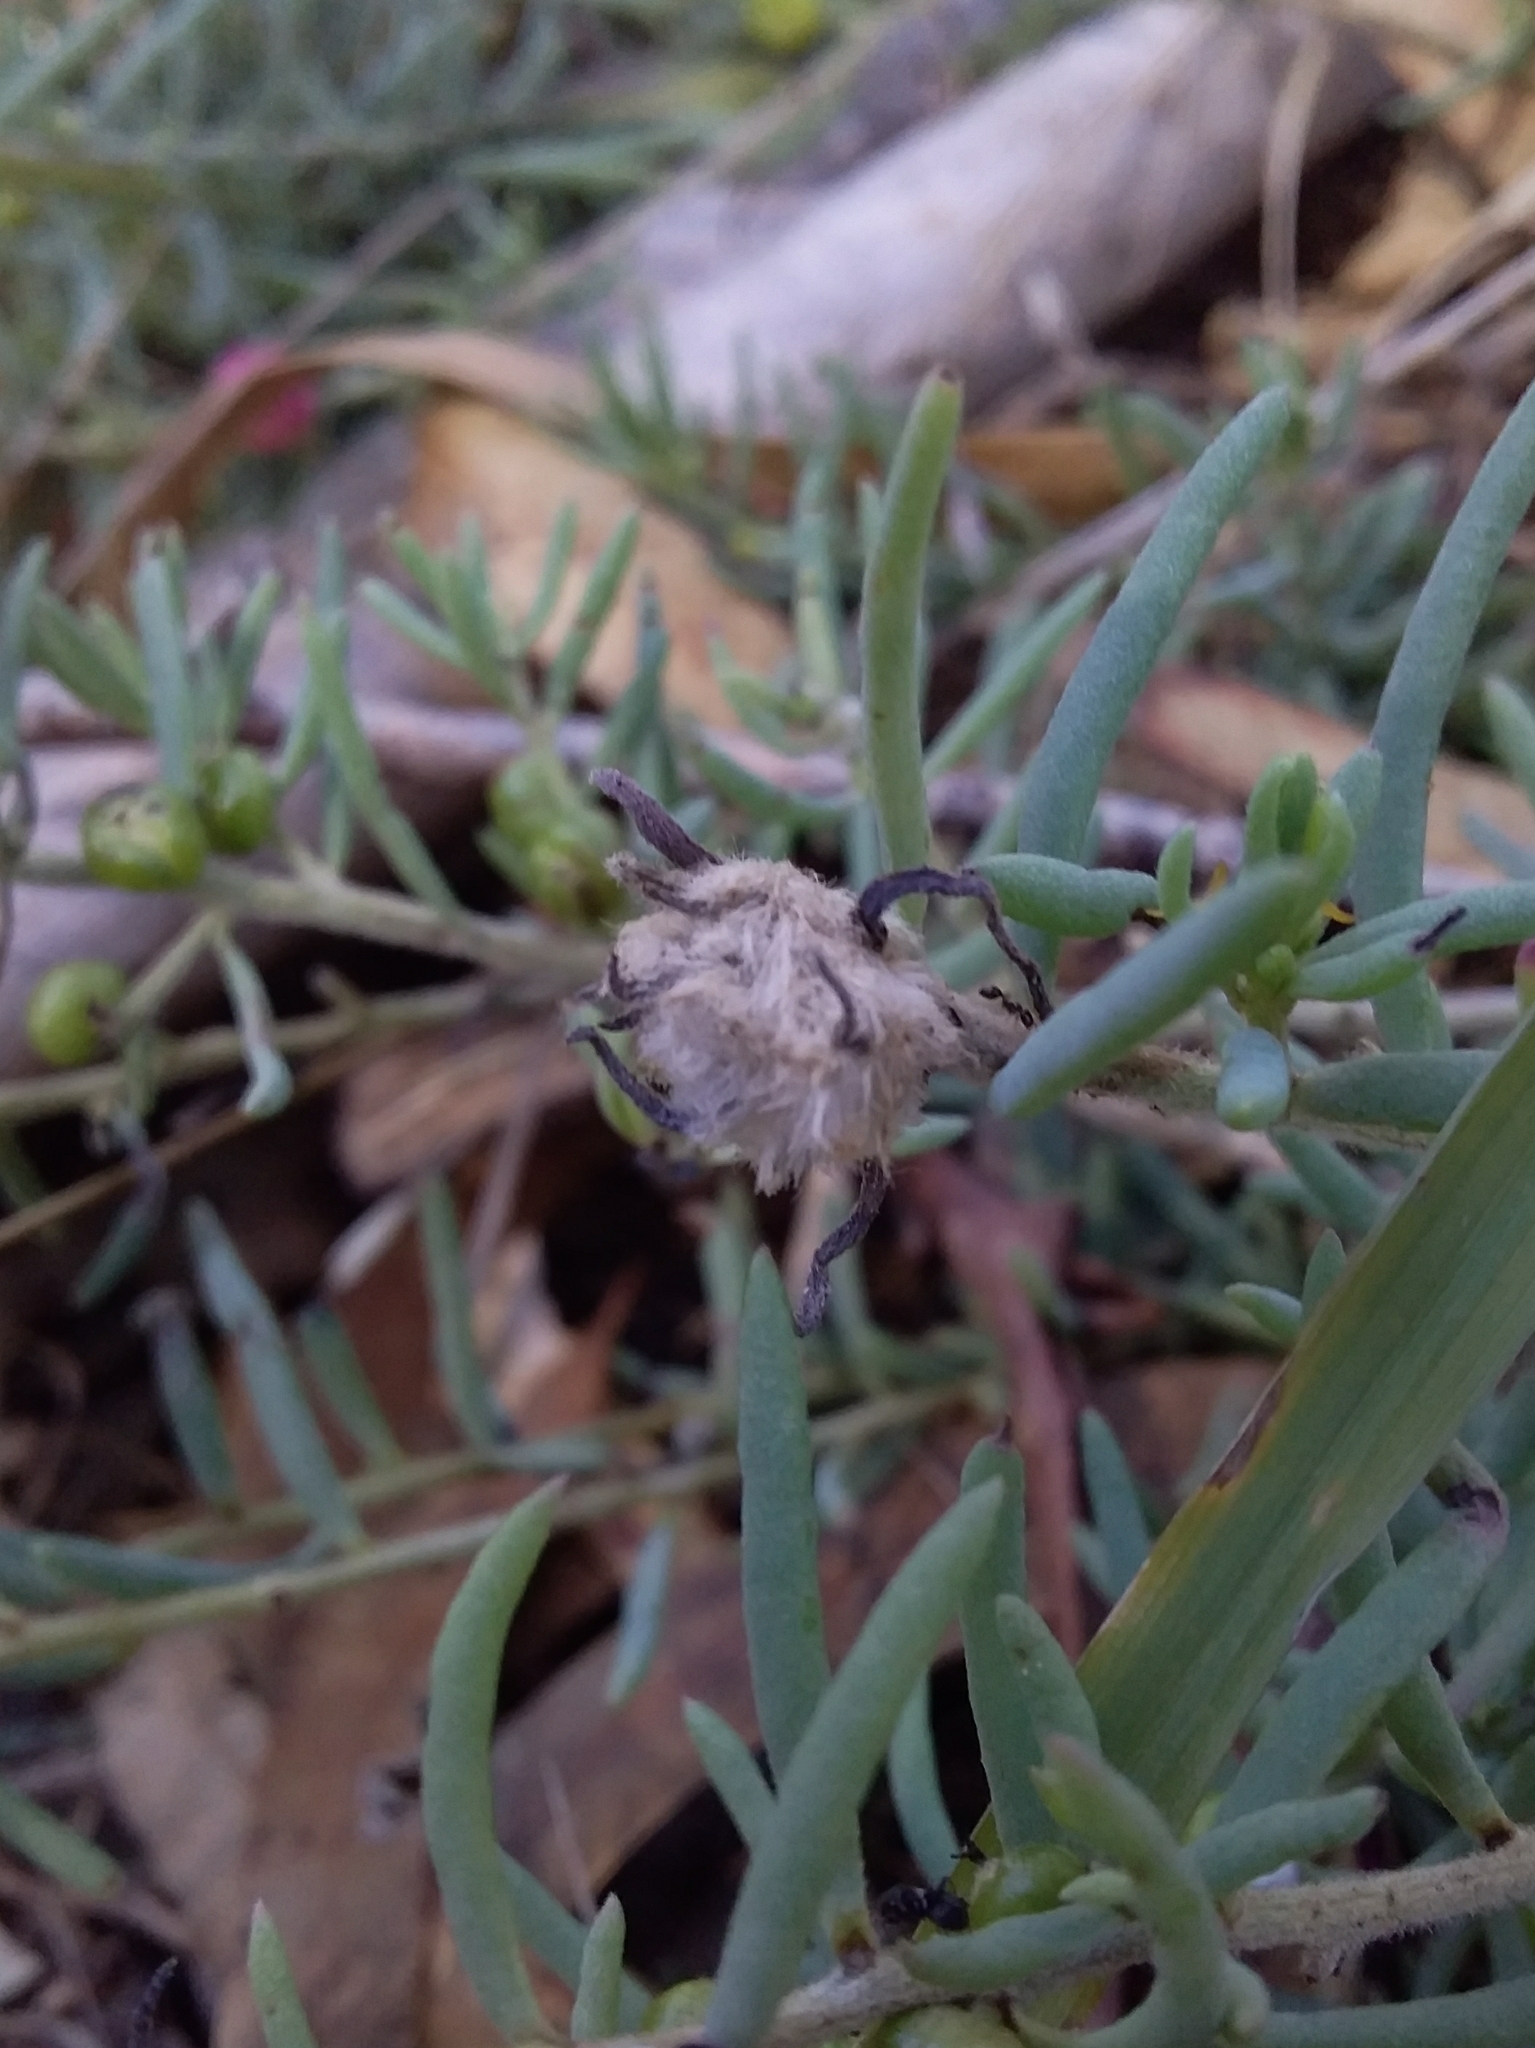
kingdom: Animalia
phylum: Arthropoda
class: Insecta
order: Diptera
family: Cecidomyiidae
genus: Asphondylia
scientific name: Asphondylia tonsura
